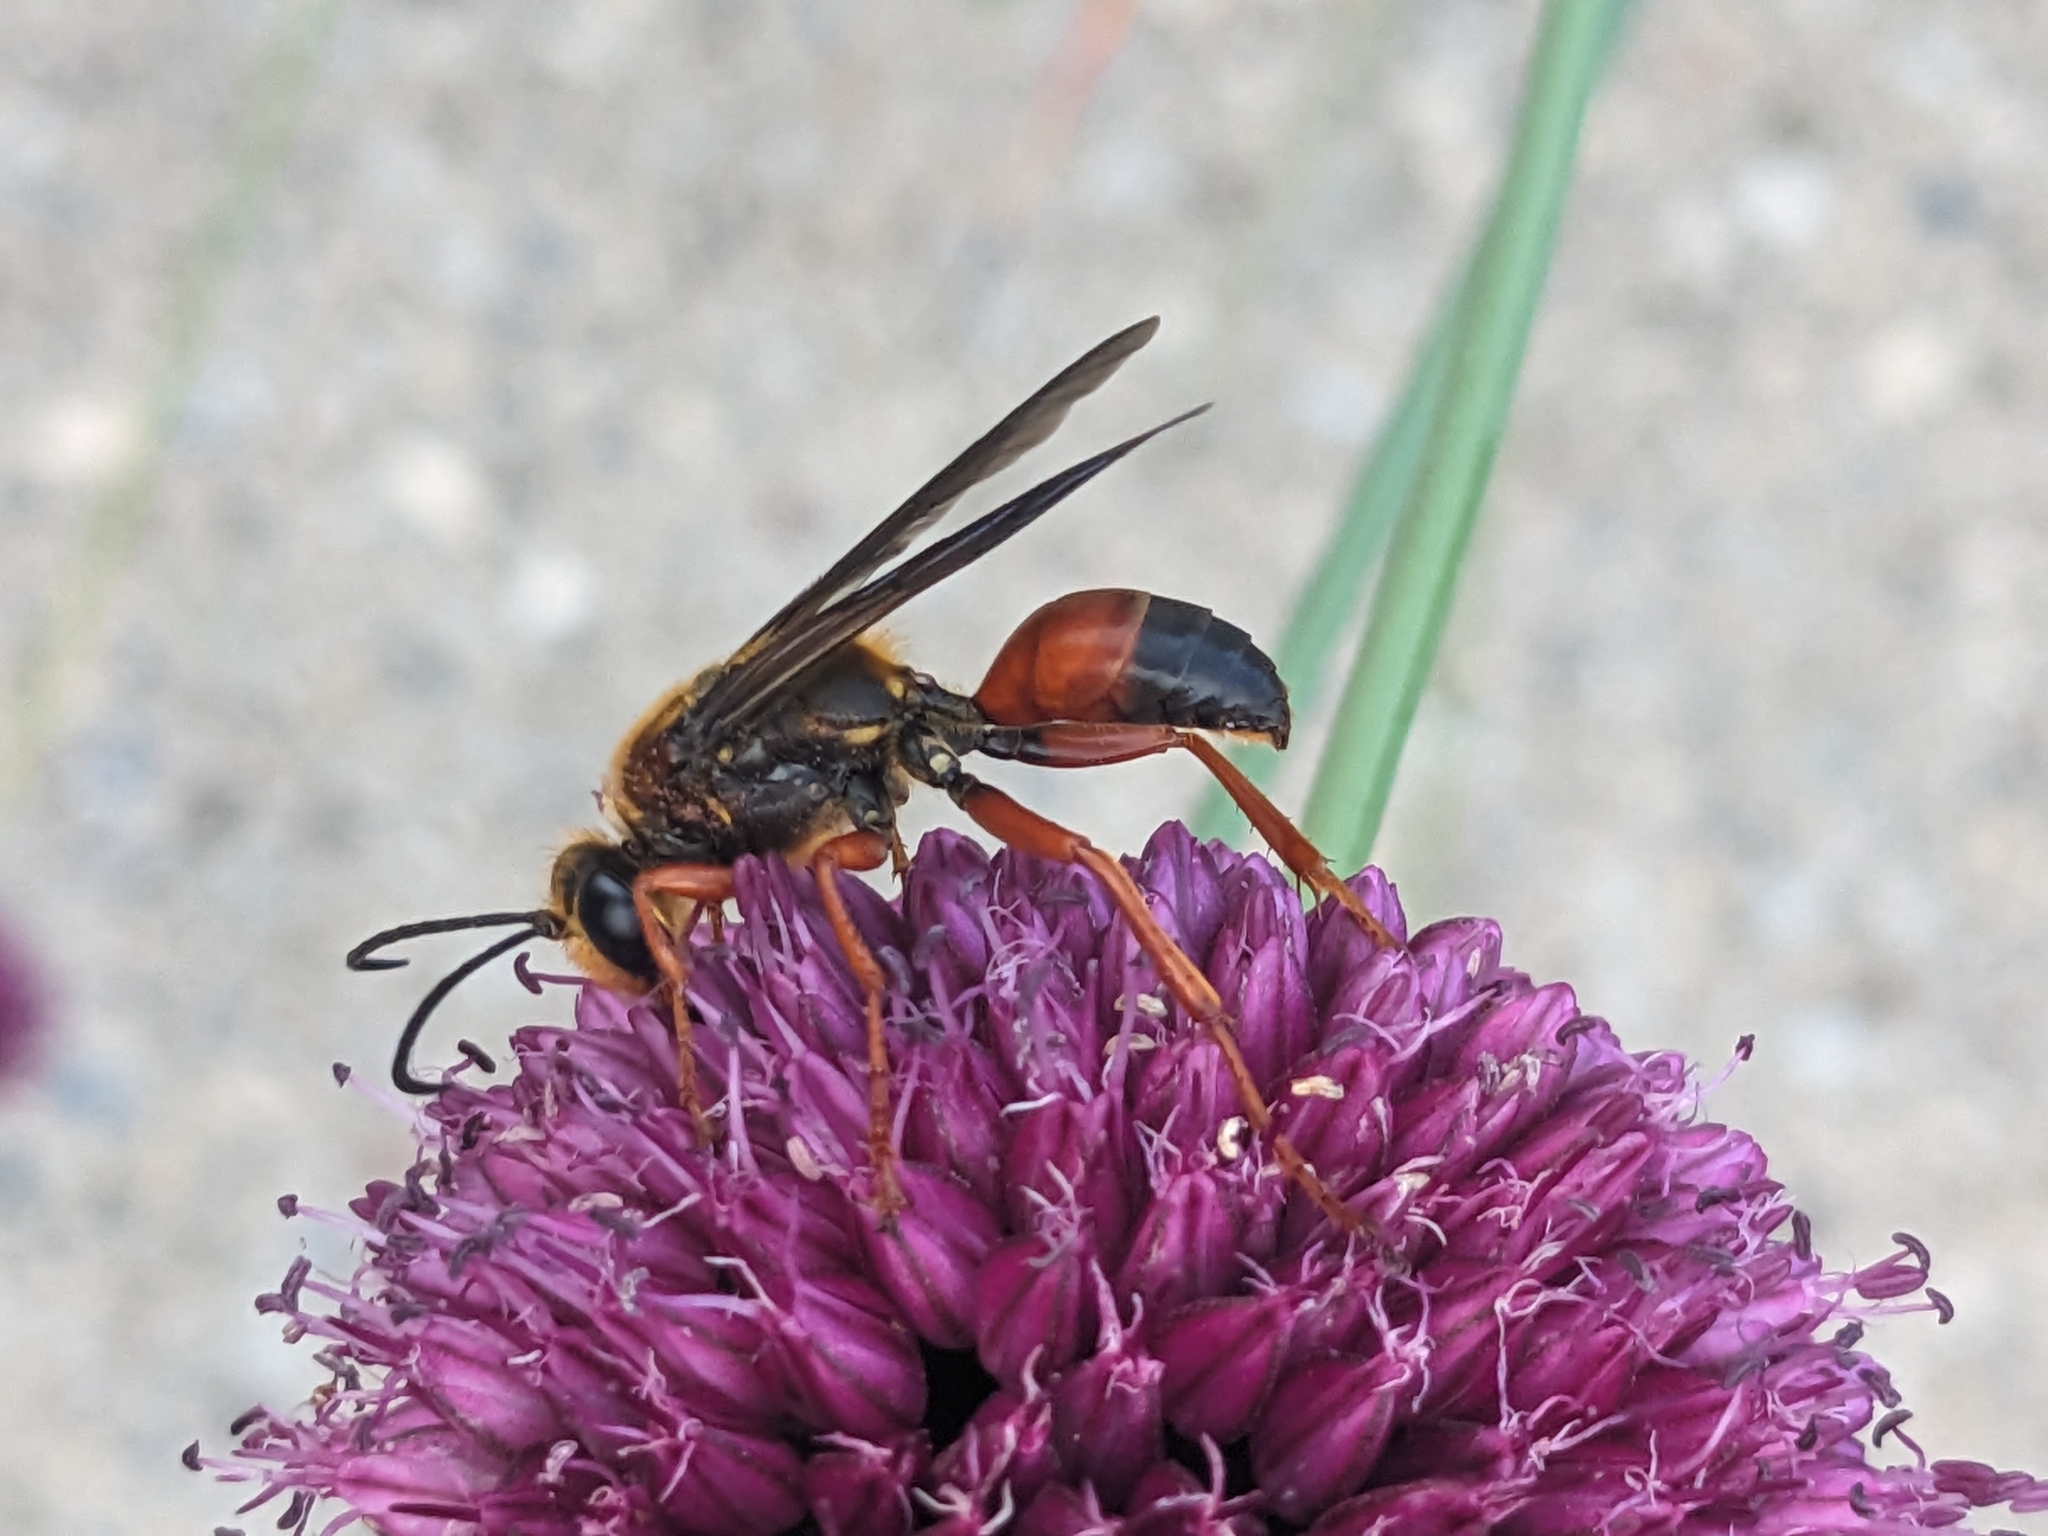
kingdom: Animalia
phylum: Arthropoda
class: Insecta
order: Hymenoptera
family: Sphecidae
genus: Sphex
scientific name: Sphex ichneumoneus
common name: Great golden digger wasp
